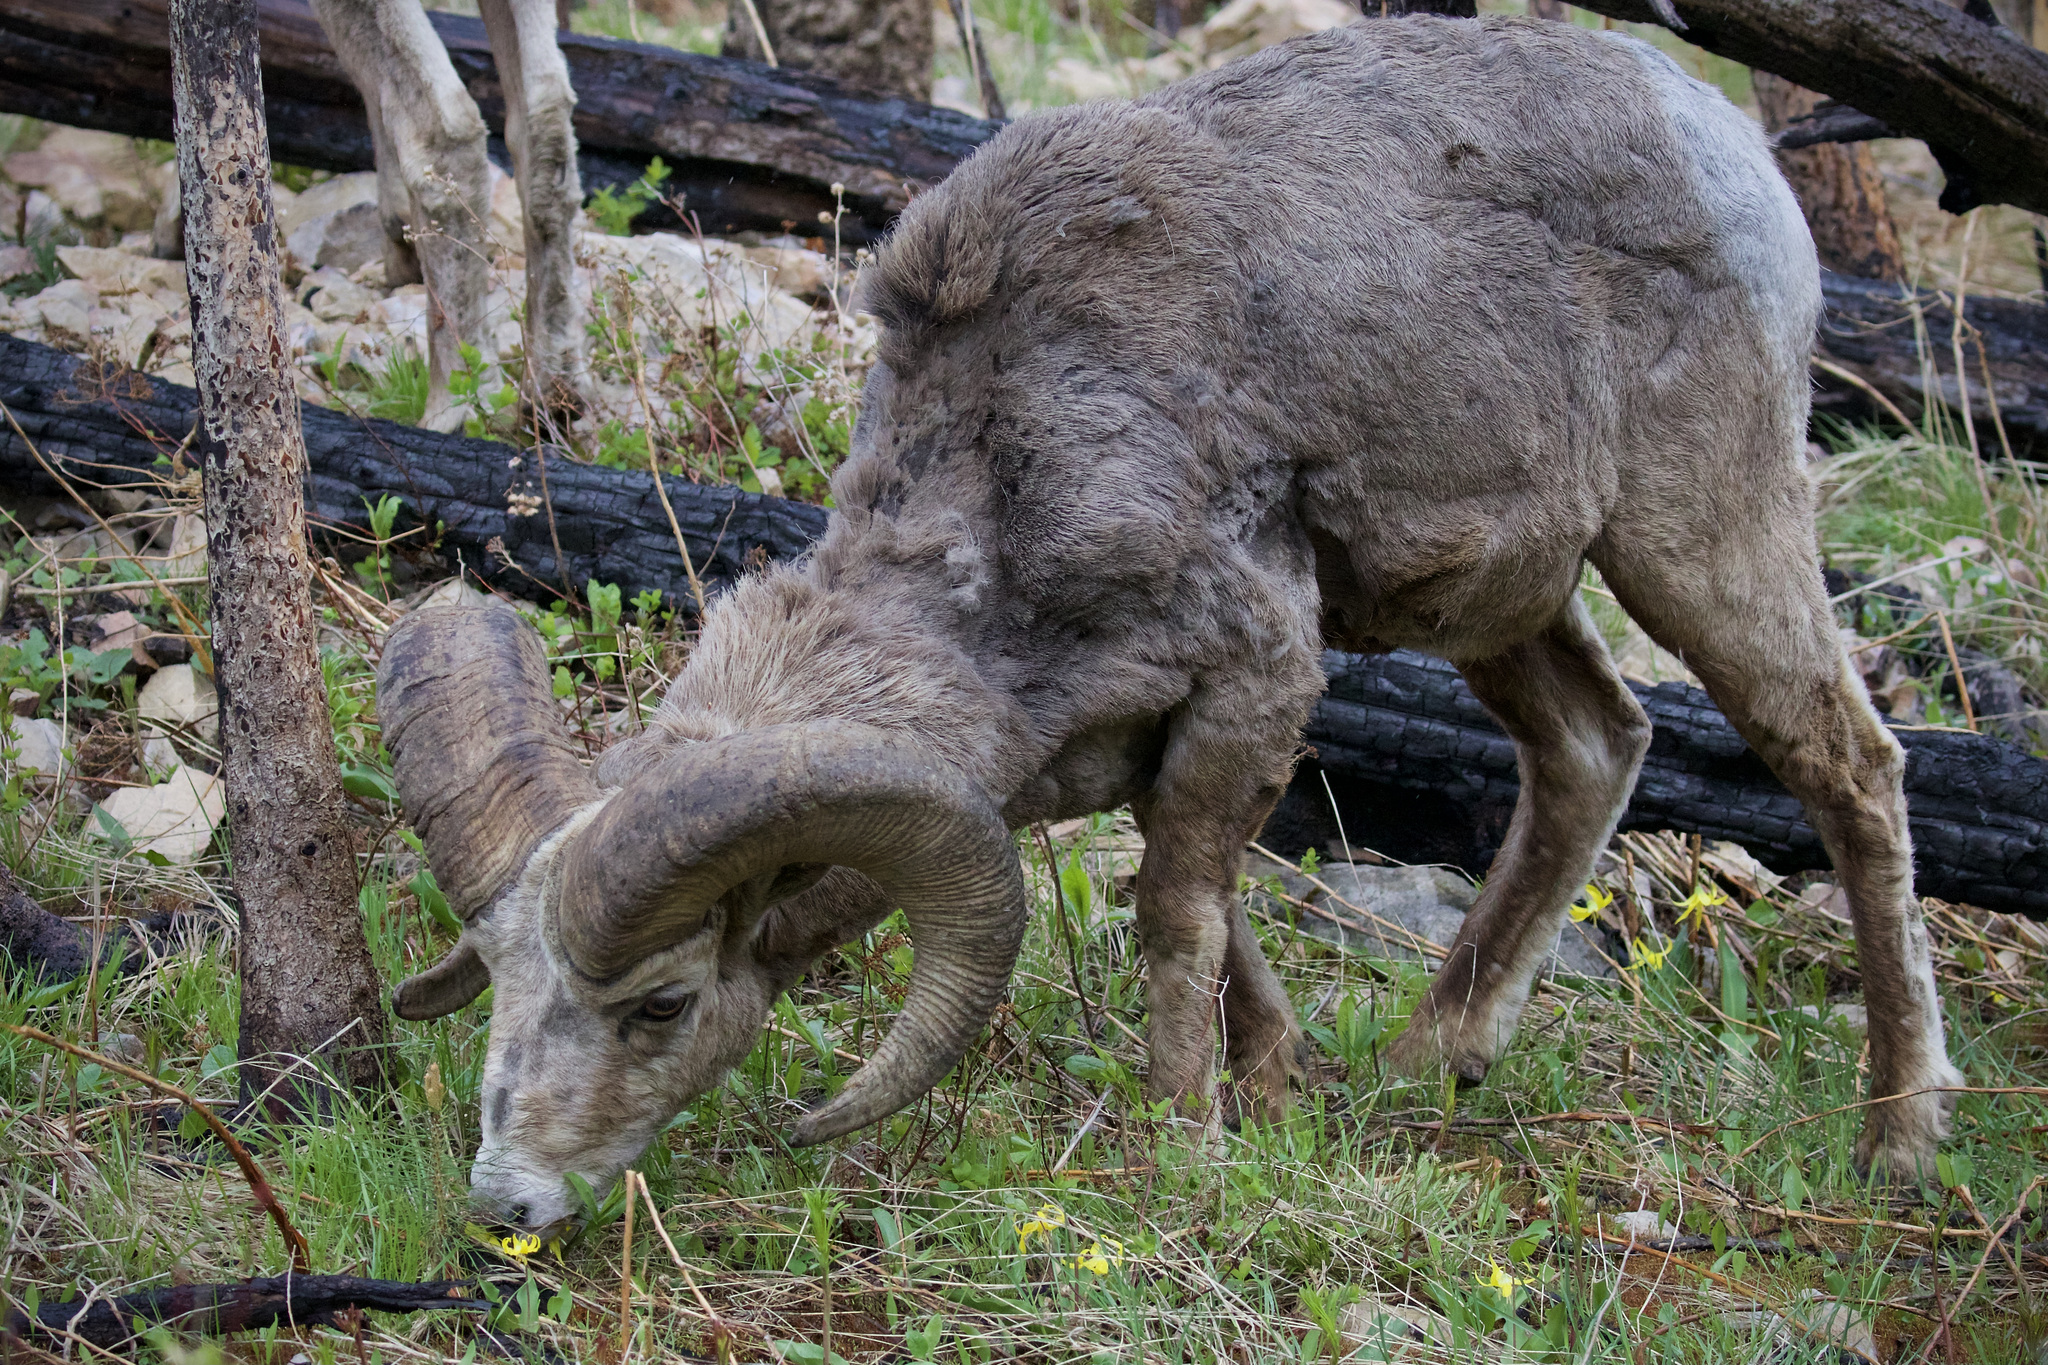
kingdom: Animalia
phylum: Chordata
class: Mammalia
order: Artiodactyla
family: Bovidae
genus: Ovis
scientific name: Ovis canadensis
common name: Bighorn sheep
